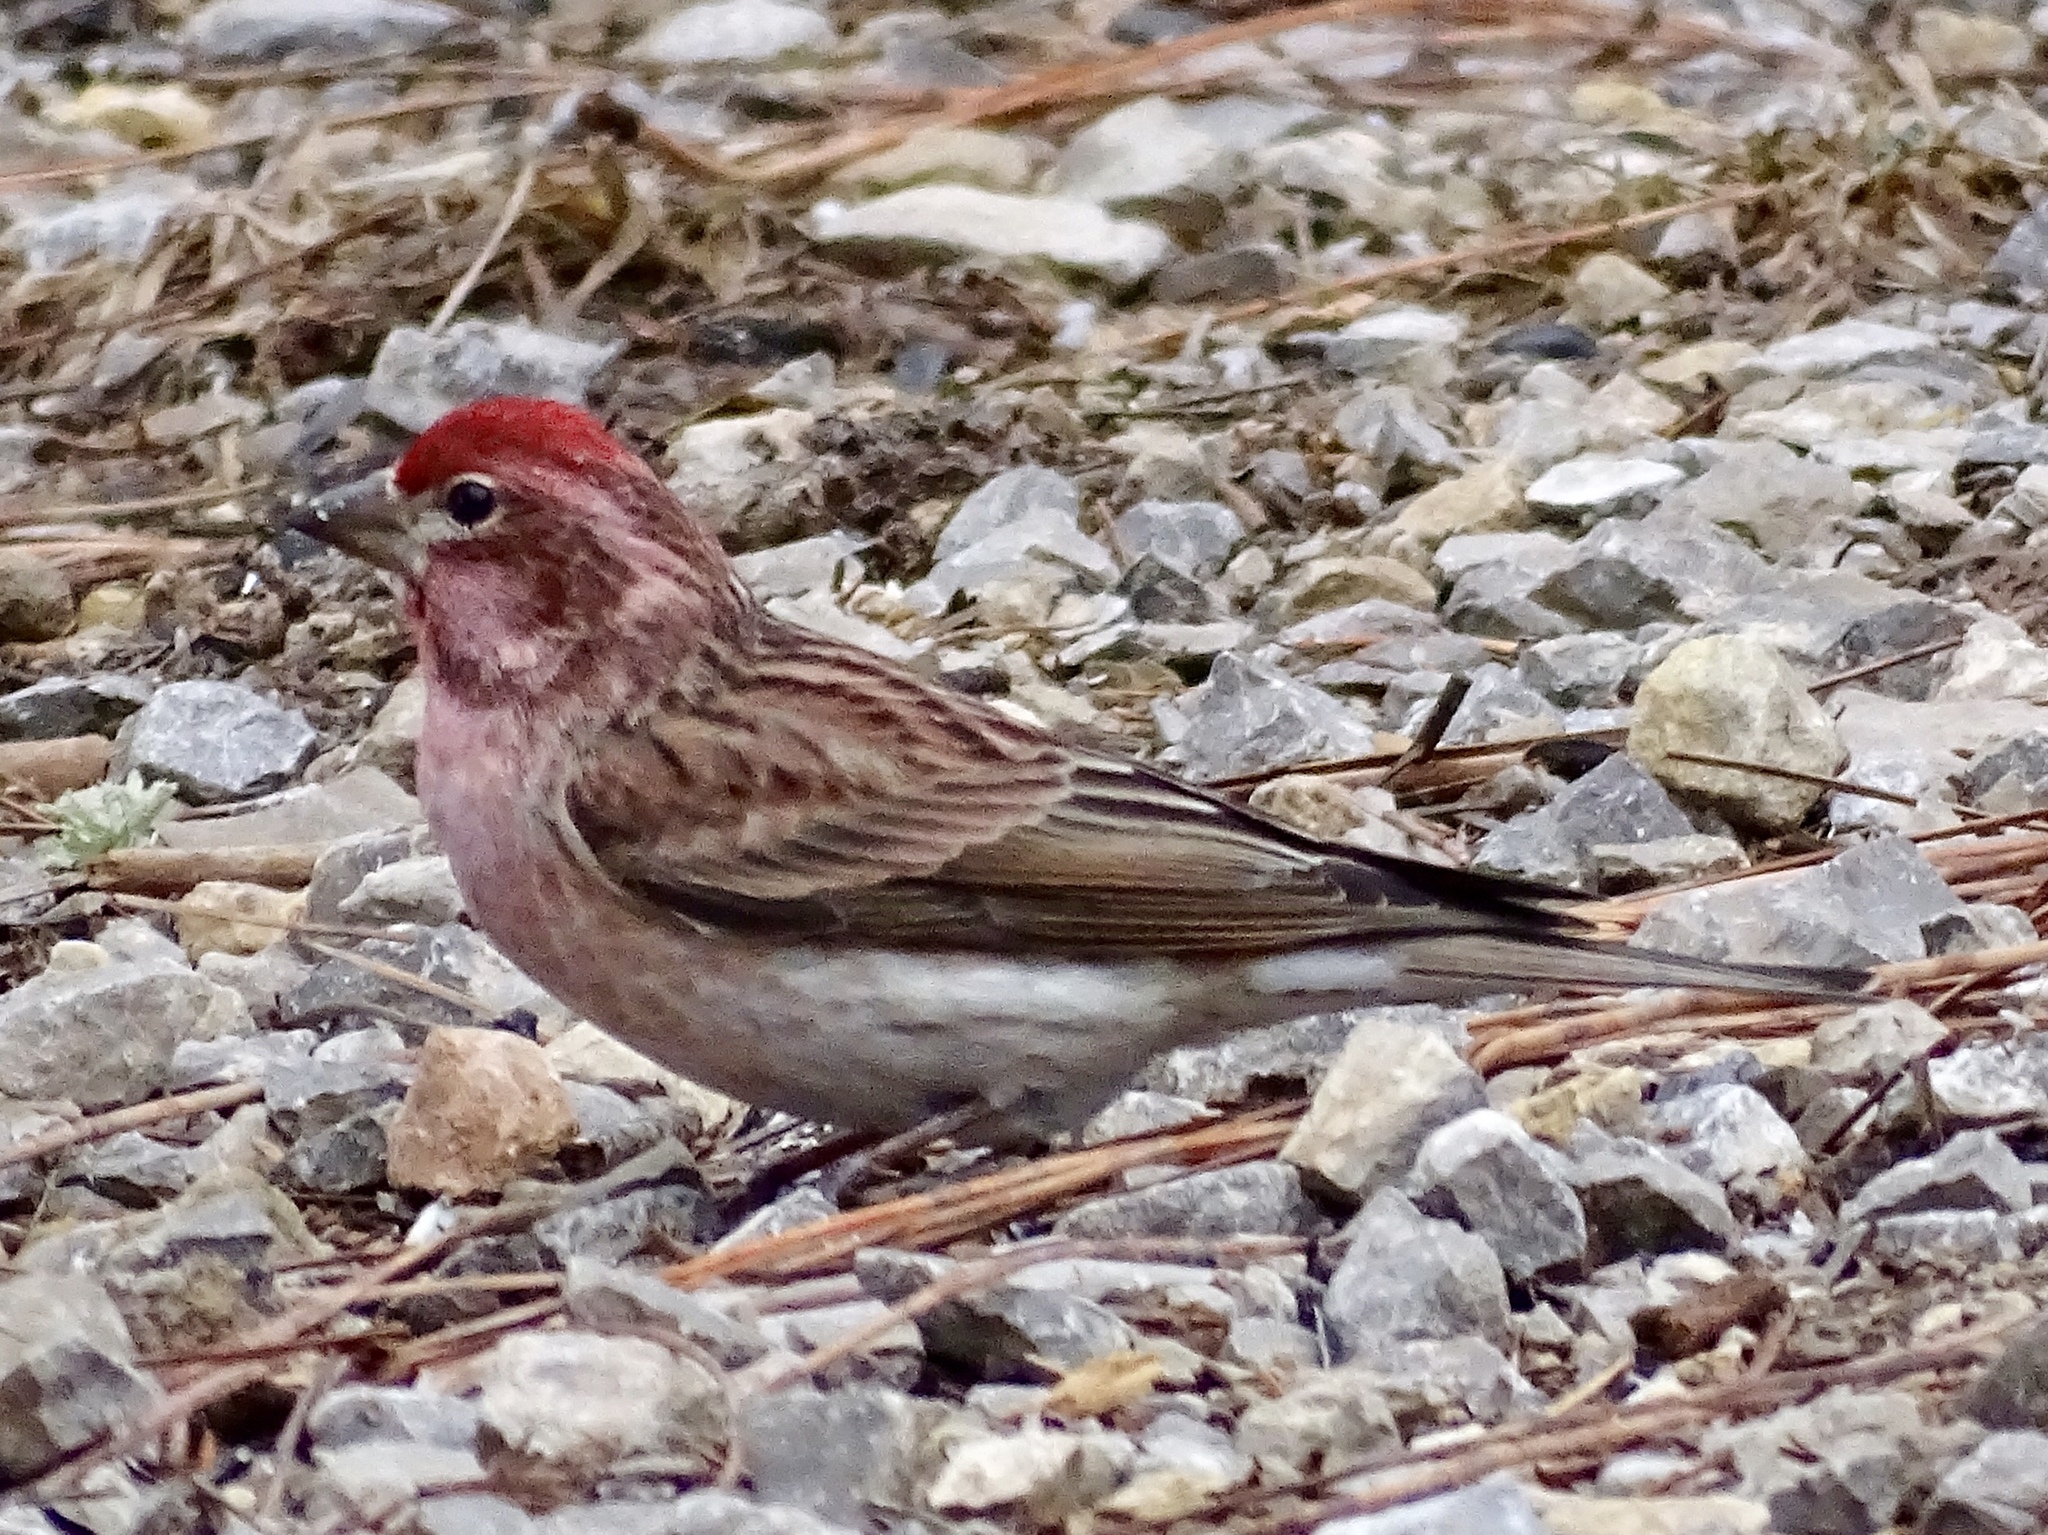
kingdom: Animalia
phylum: Chordata
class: Aves
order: Passeriformes
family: Fringillidae
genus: Haemorhous
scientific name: Haemorhous cassinii
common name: Cassin's finch
